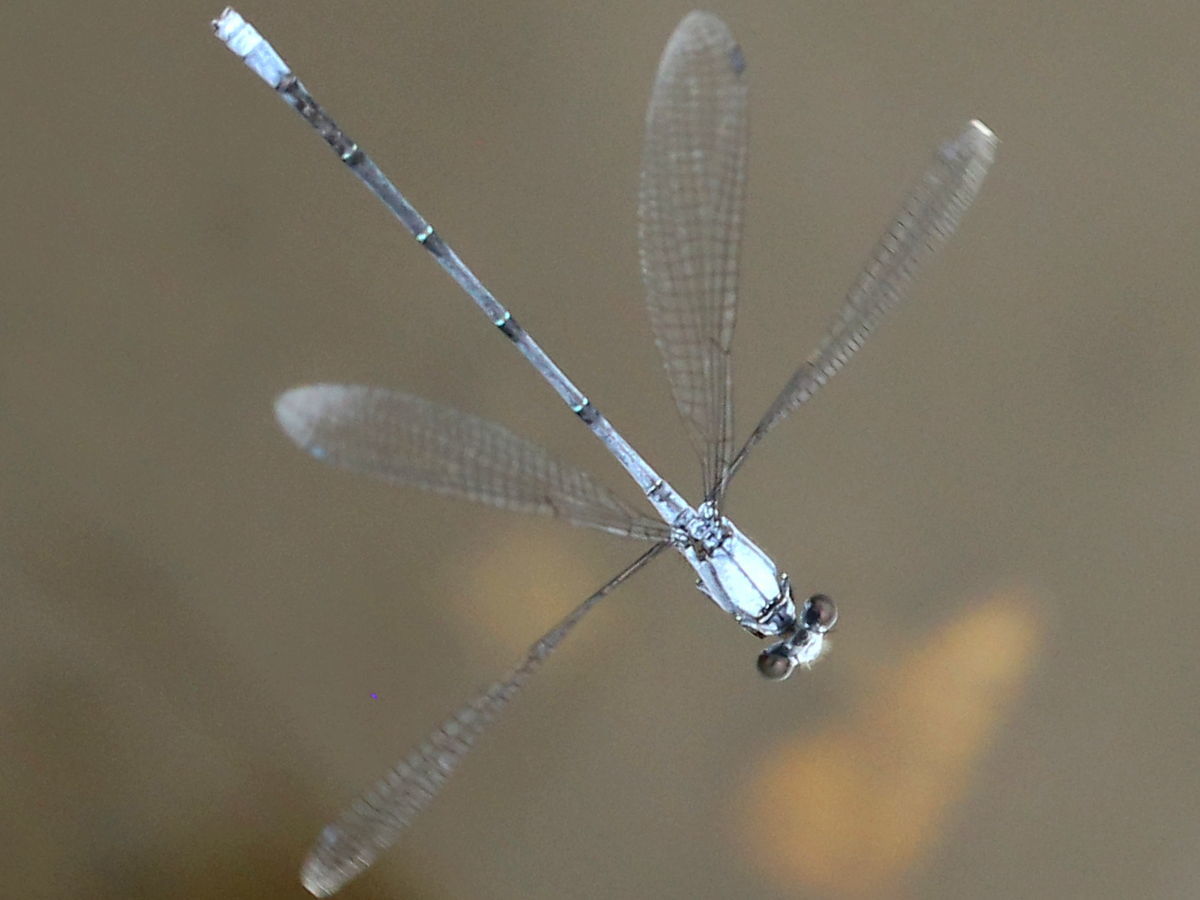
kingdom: Animalia
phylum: Arthropoda
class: Insecta
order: Odonata
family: Coenagrionidae
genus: Argia
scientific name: Argia moesta
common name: Powdered dancer
